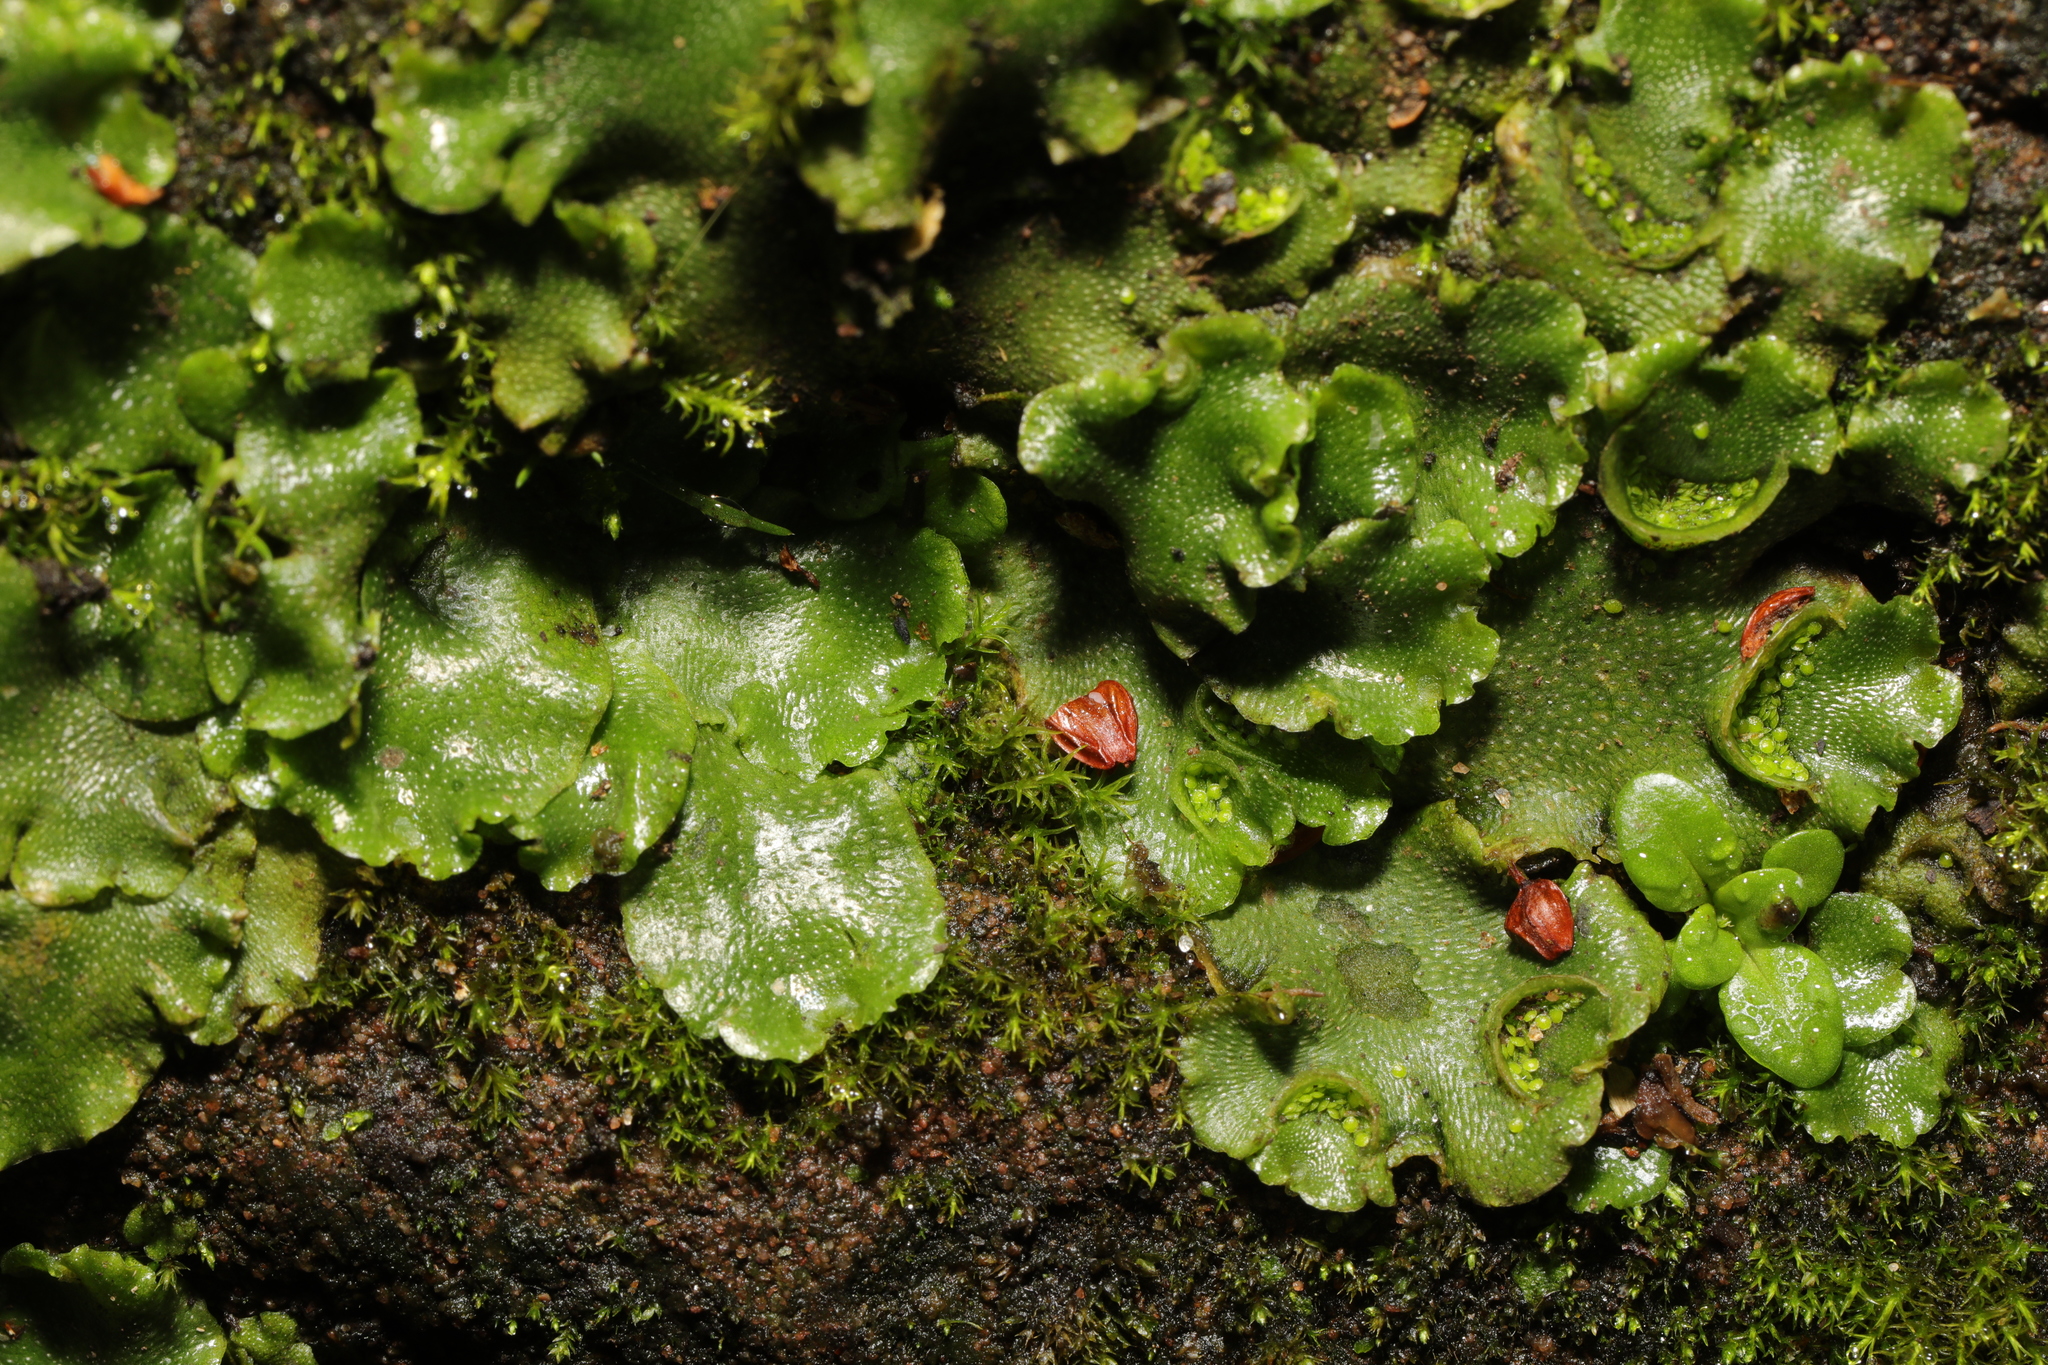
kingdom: Plantae
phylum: Marchantiophyta
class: Marchantiopsida
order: Lunulariales
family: Lunulariaceae
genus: Lunularia
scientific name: Lunularia cruciata
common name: Crescent-cup liverwort
